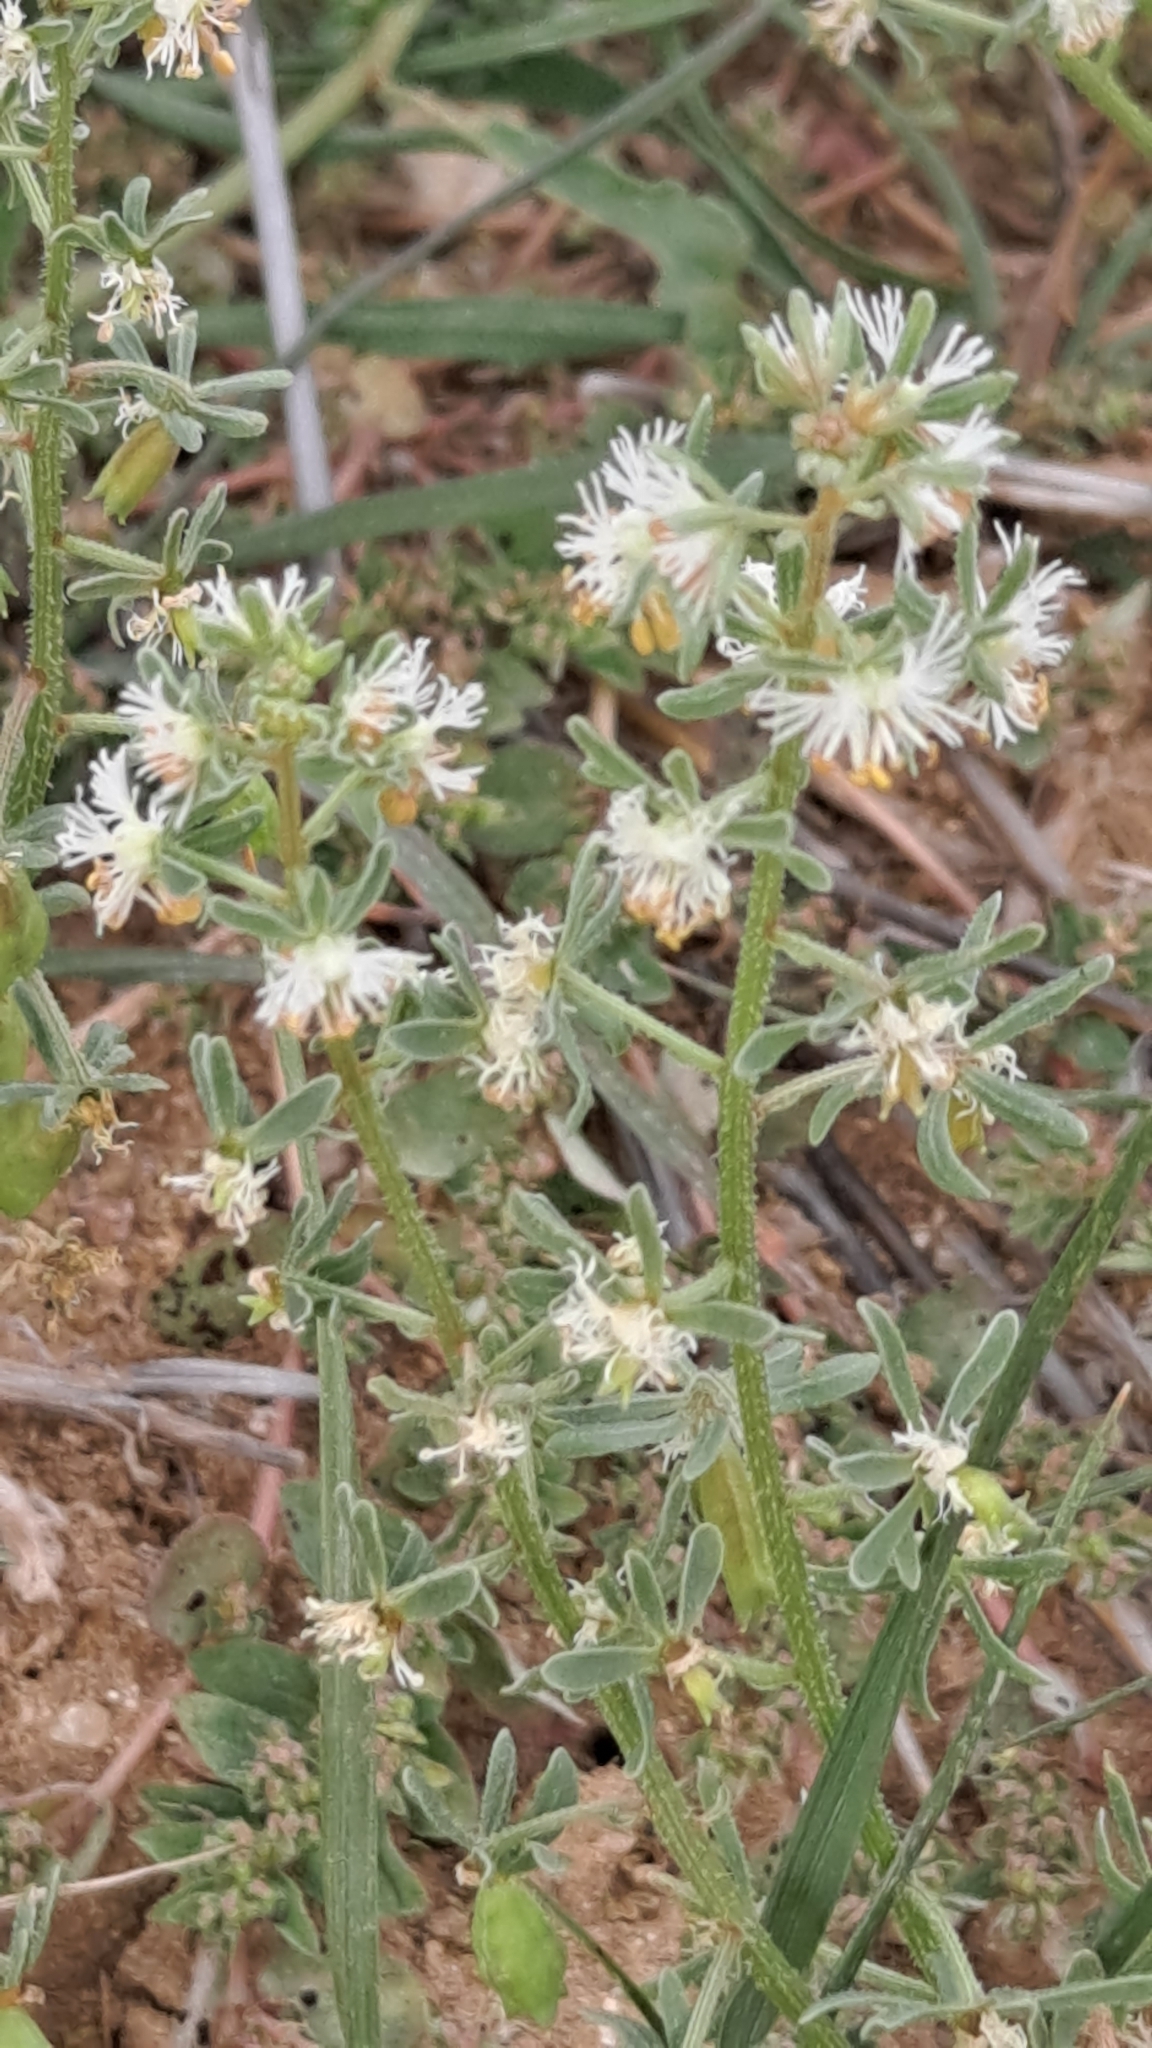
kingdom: Plantae
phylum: Tracheophyta
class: Magnoliopsida
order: Brassicales
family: Resedaceae
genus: Reseda
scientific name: Reseda phyteuma
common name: Corn mignonette
